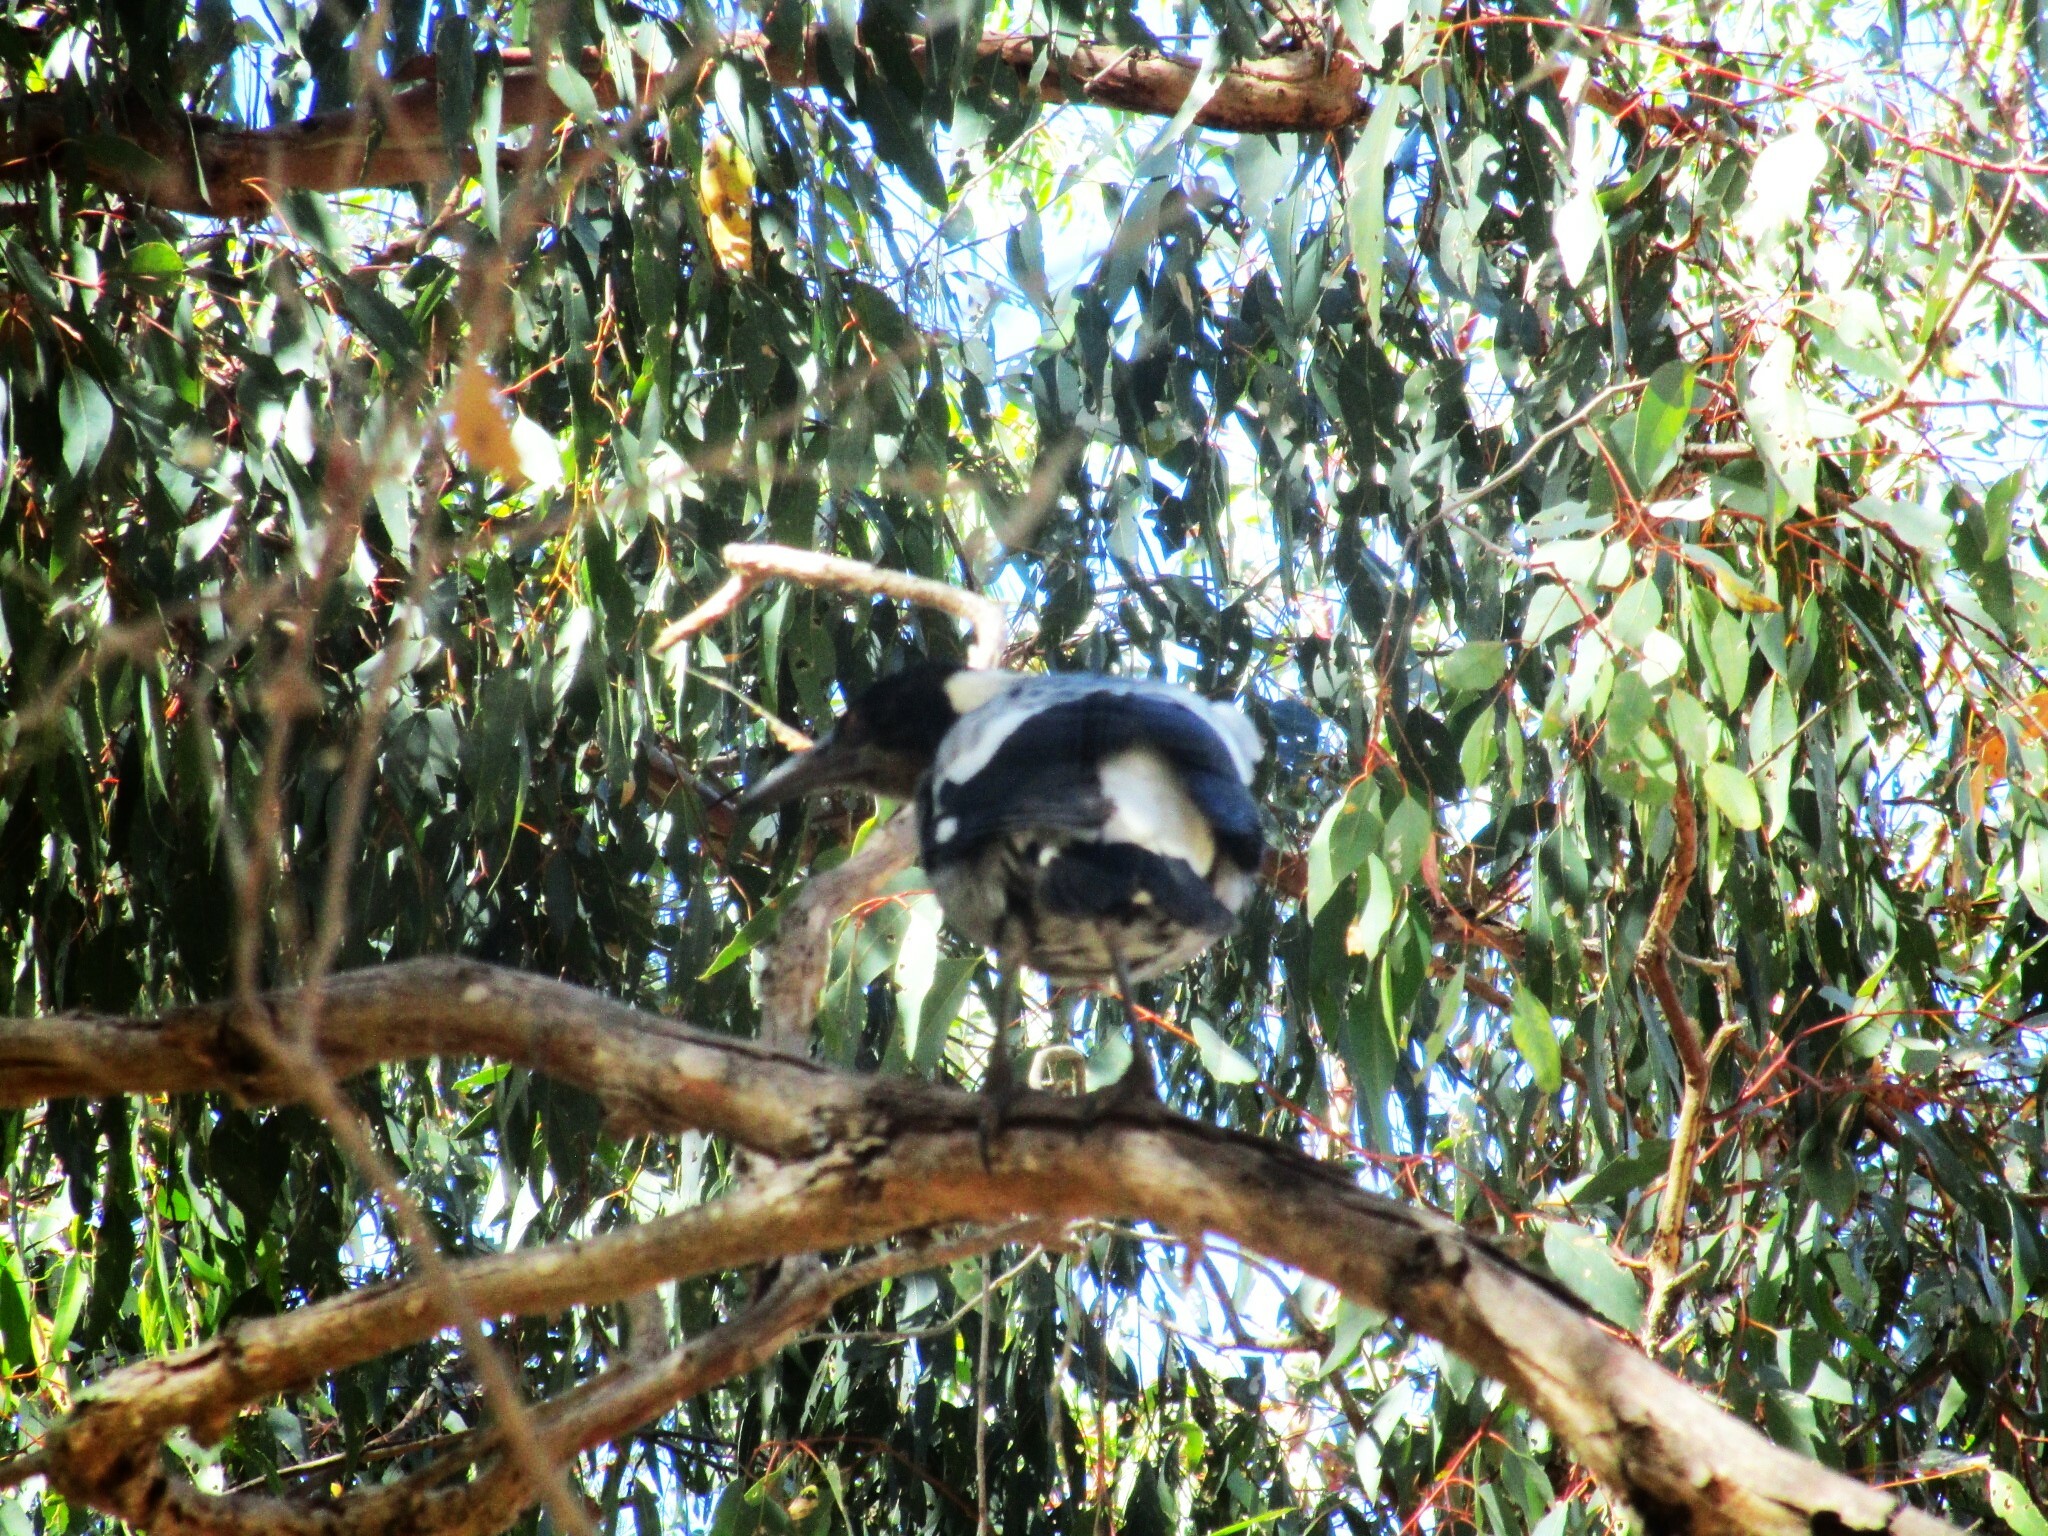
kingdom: Animalia
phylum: Chordata
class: Aves
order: Passeriformes
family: Cracticidae
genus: Gymnorhina
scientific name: Gymnorhina tibicen
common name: Australian magpie
